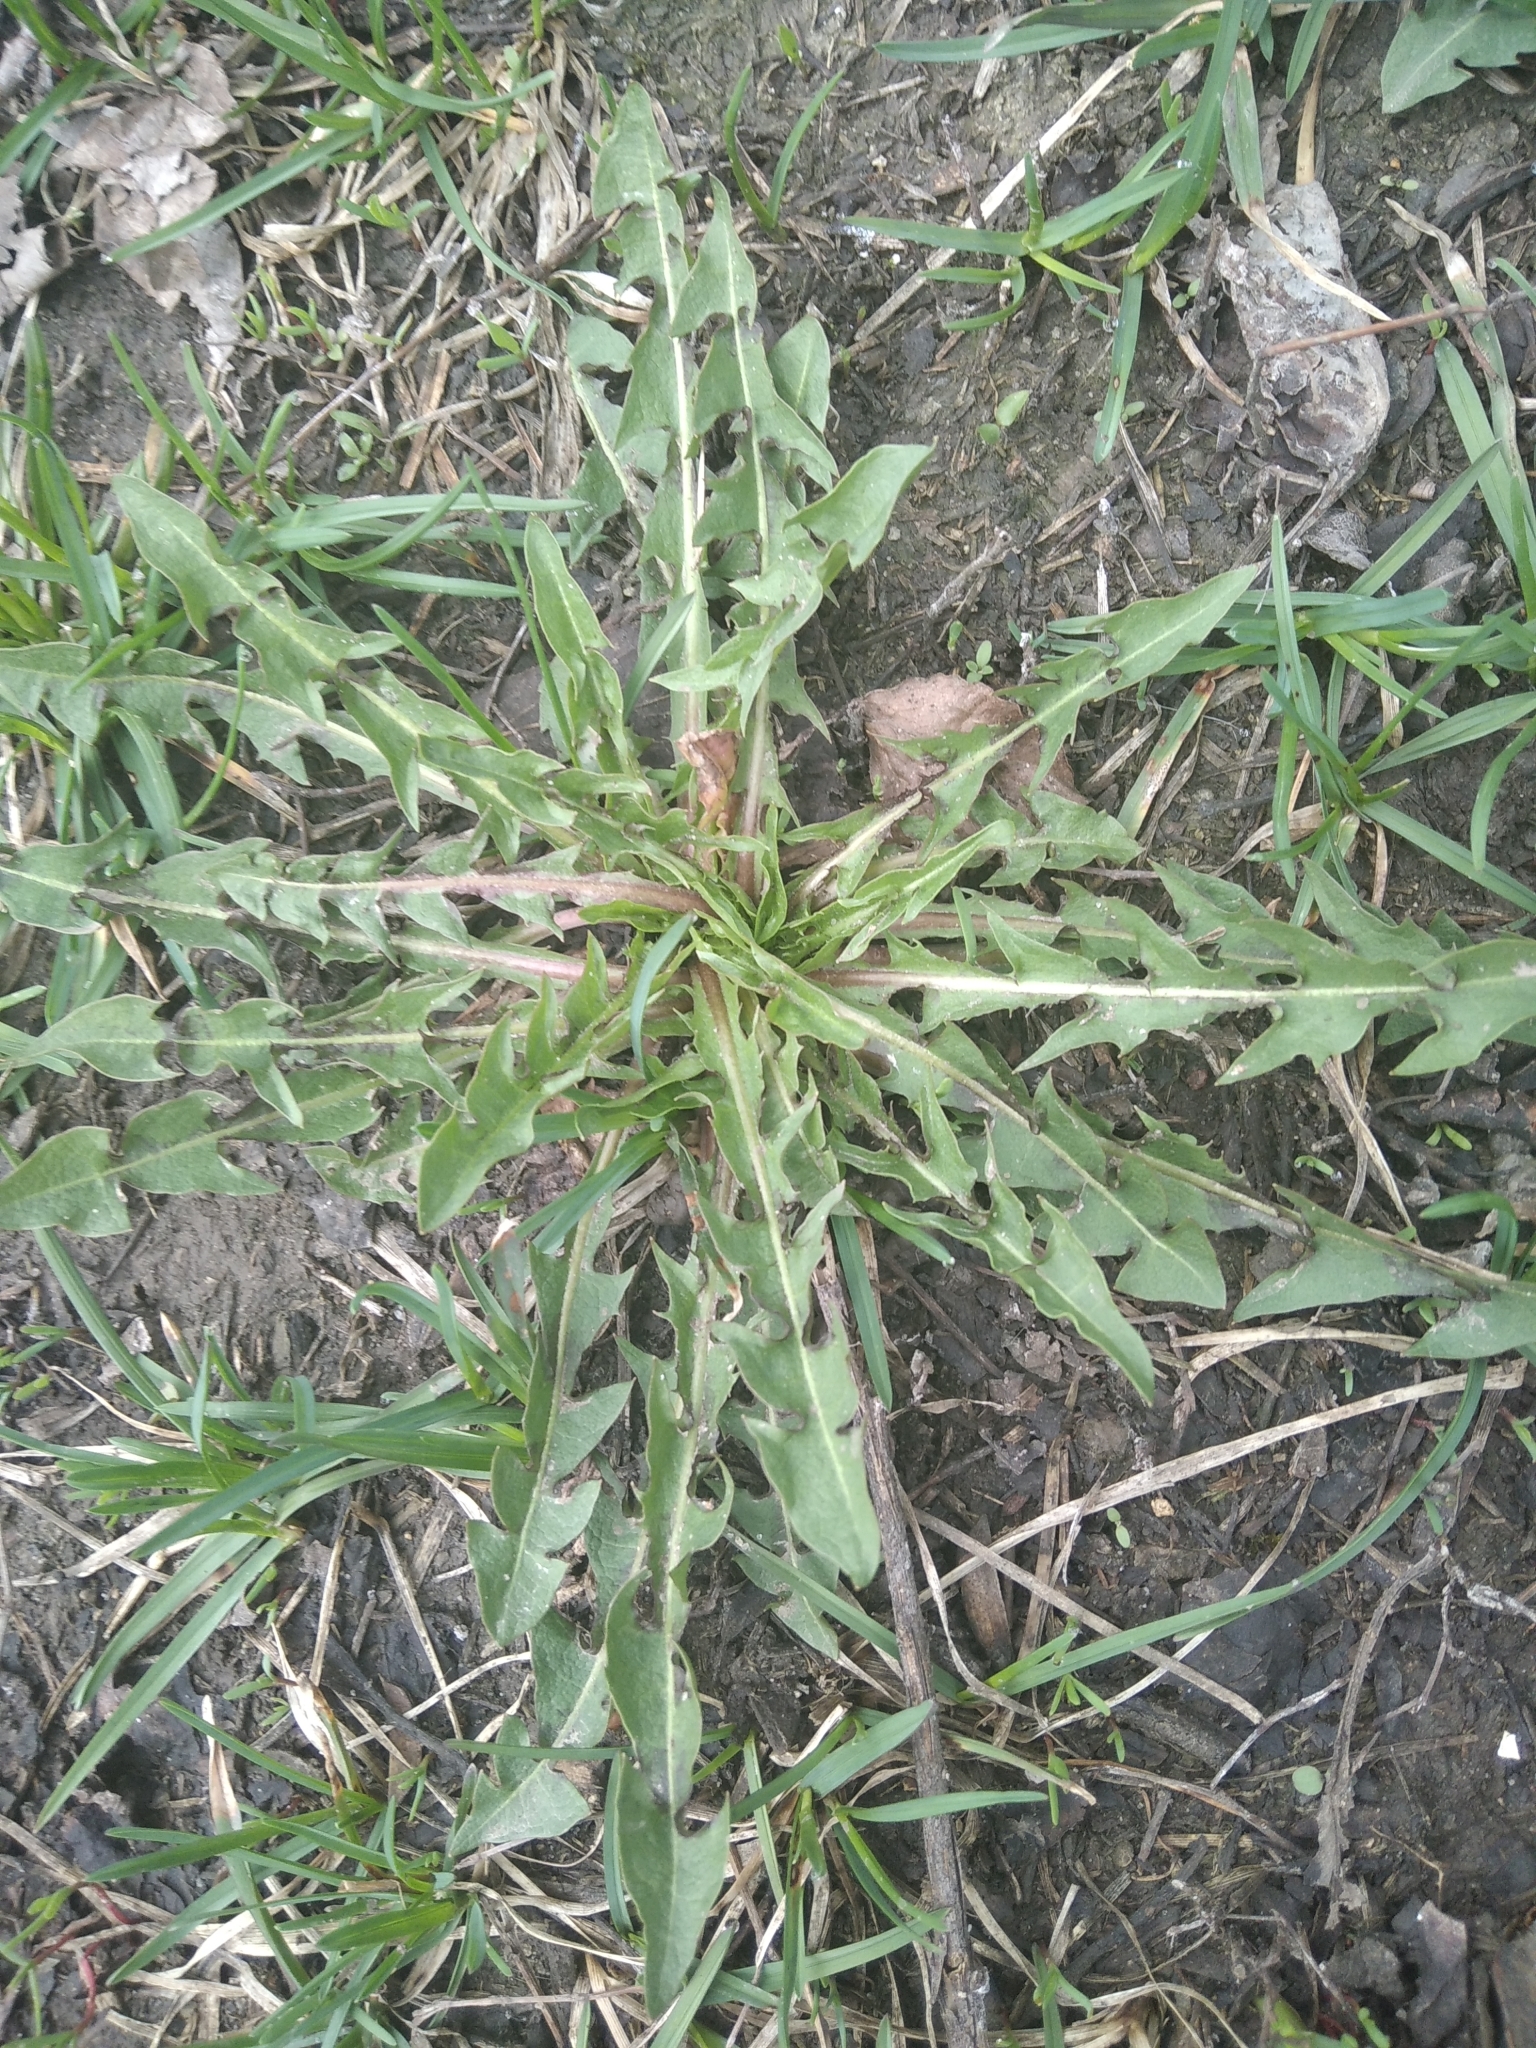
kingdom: Plantae
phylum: Tracheophyta
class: Magnoliopsida
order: Asterales
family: Asteraceae
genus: Taraxacum
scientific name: Taraxacum officinale
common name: Common dandelion
